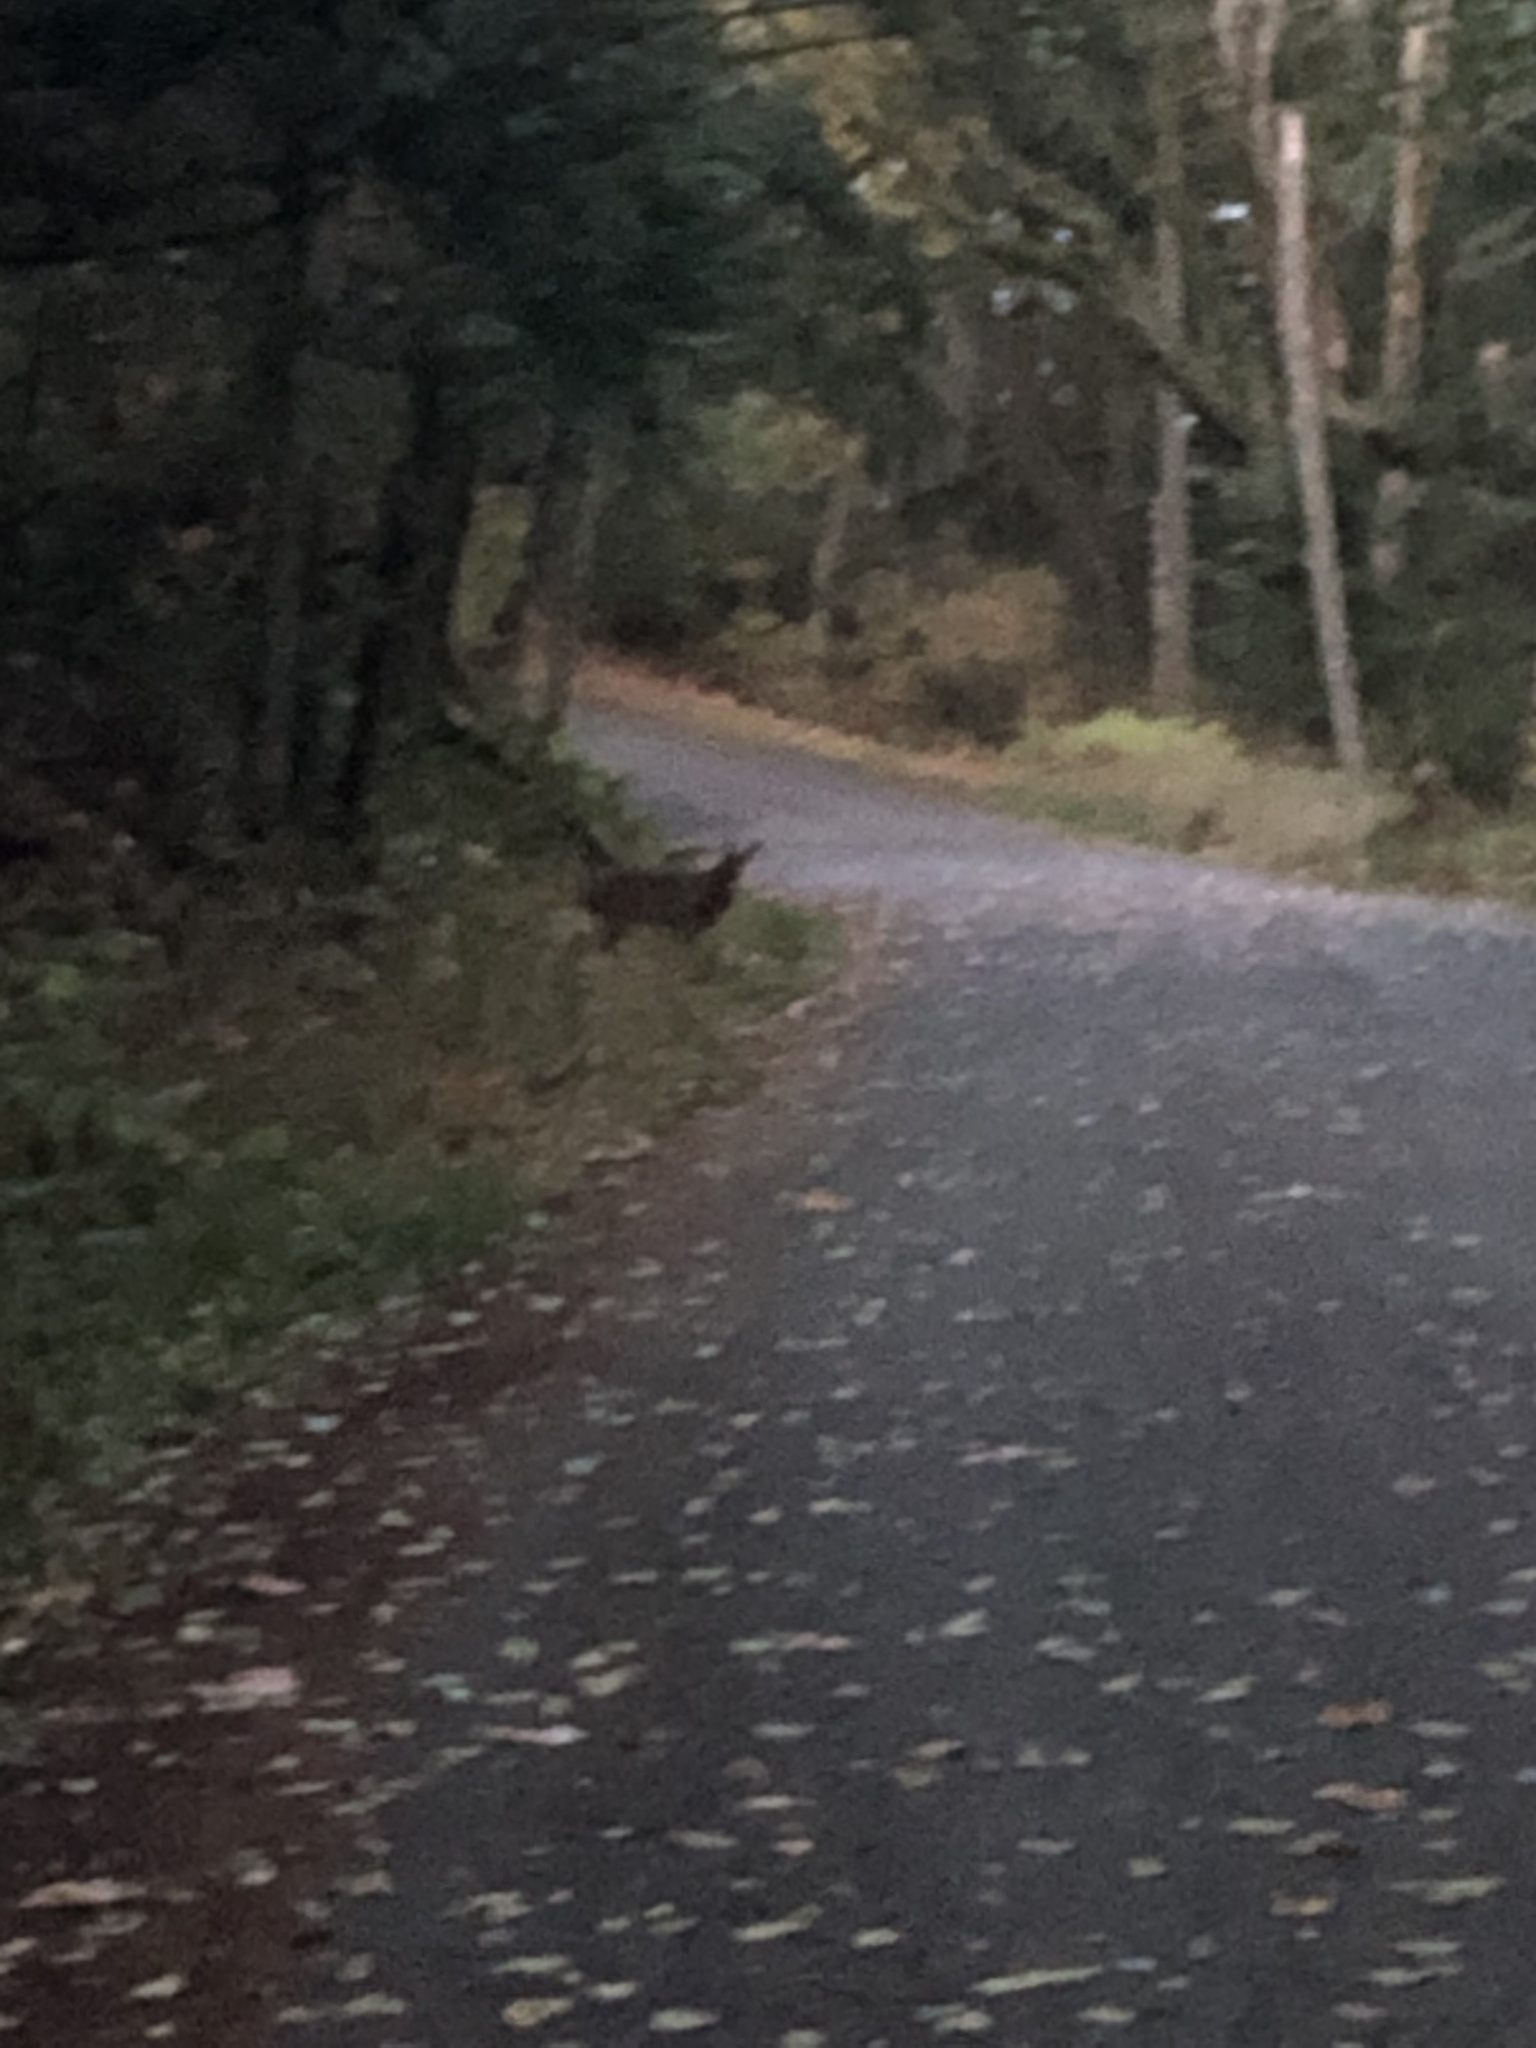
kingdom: Animalia
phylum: Chordata
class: Mammalia
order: Artiodactyla
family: Cervidae
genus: Odocoileus
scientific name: Odocoileus hemionus
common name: Mule deer
